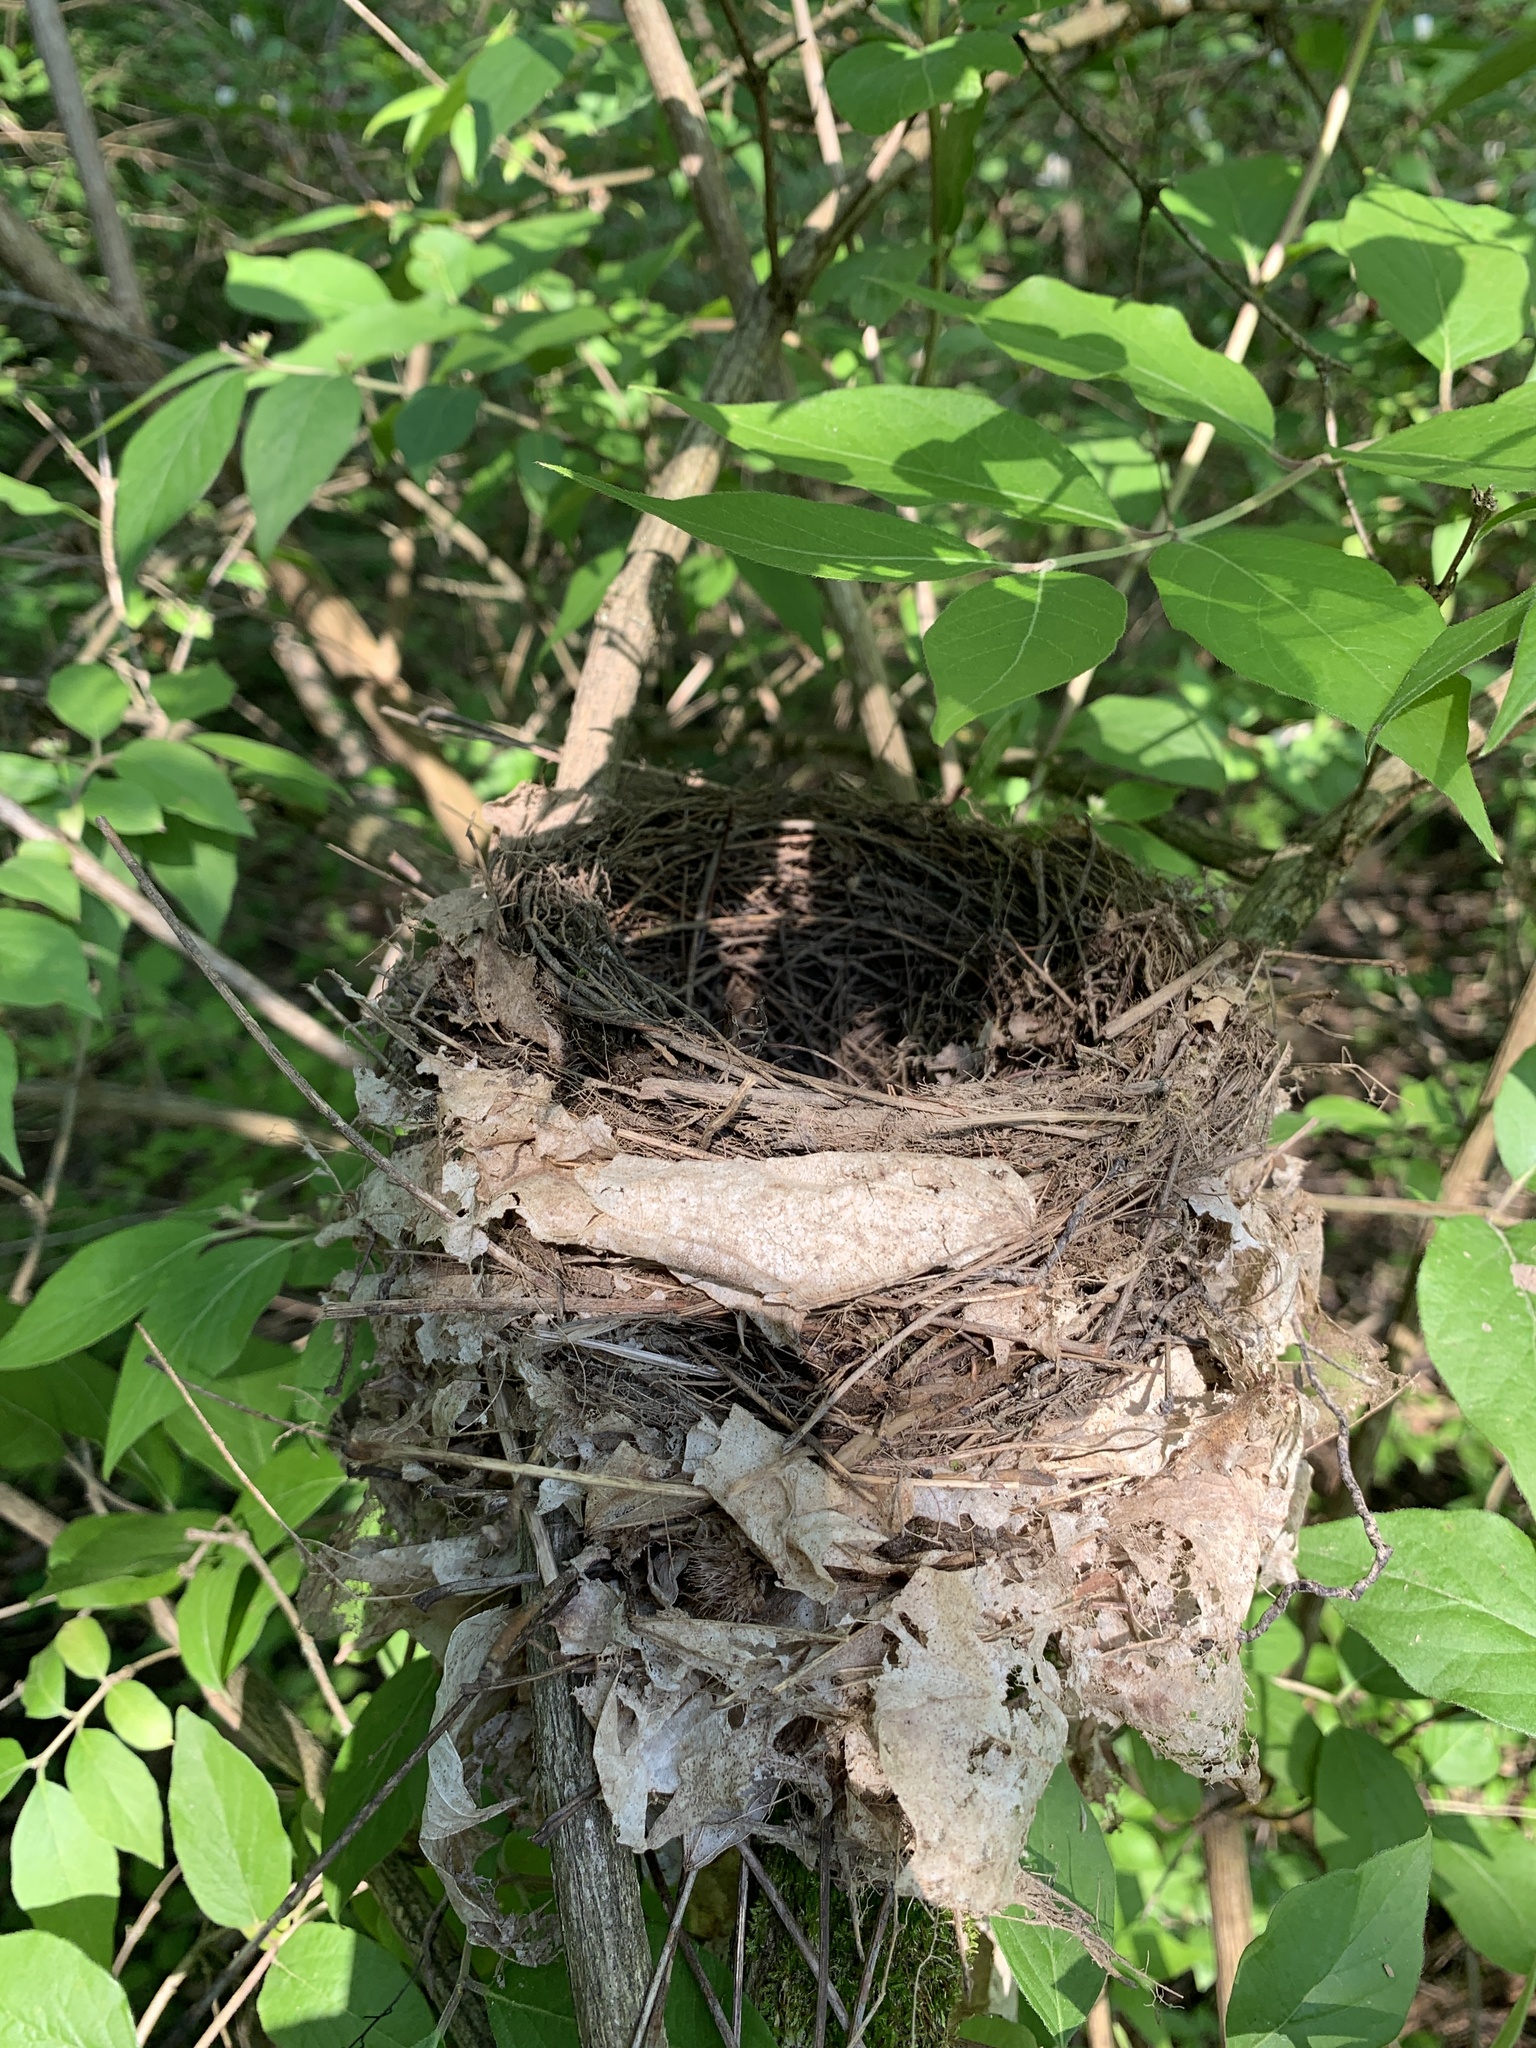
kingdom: Animalia
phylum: Chordata
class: Aves
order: Passeriformes
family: Icteridae
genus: Molothrus
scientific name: Molothrus ater
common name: Brown-headed cowbird
